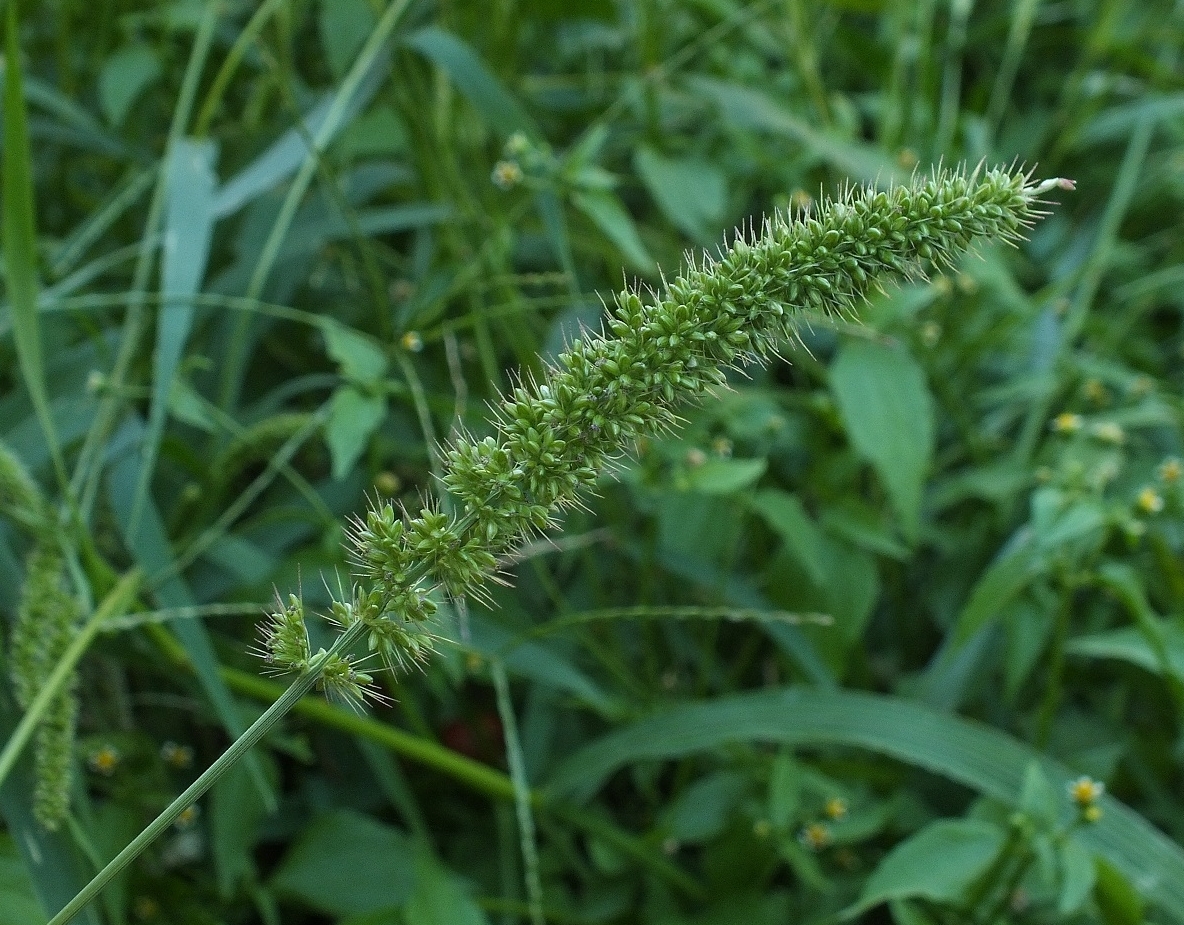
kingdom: Plantae
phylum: Tracheophyta
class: Liliopsida
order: Poales
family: Poaceae
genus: Setaria
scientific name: Setaria verticillata
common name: Hooked bristlegrass
